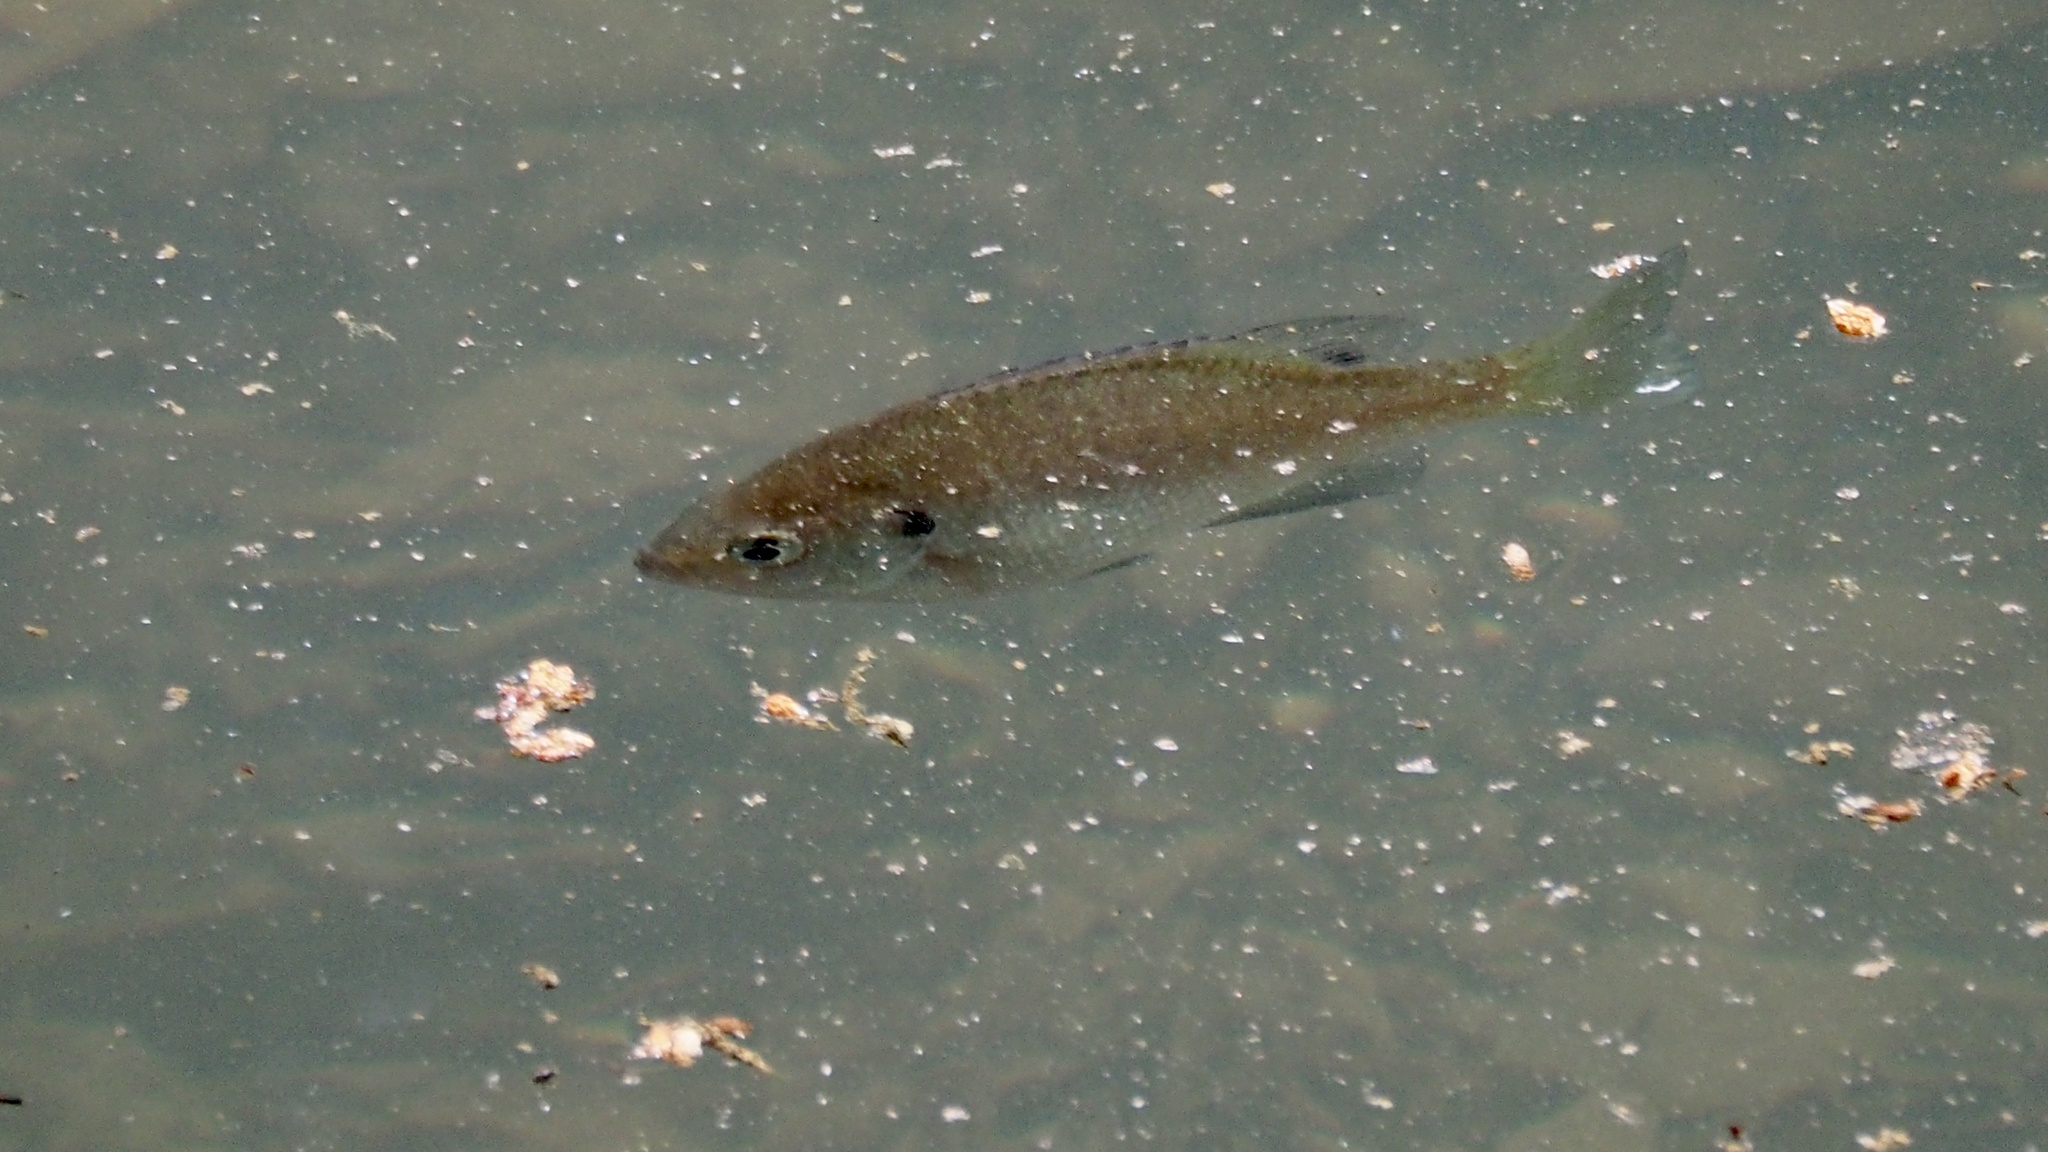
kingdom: Animalia
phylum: Chordata
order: Perciformes
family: Centrarchidae
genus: Lepomis
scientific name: Lepomis macrochirus
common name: Bluegill
